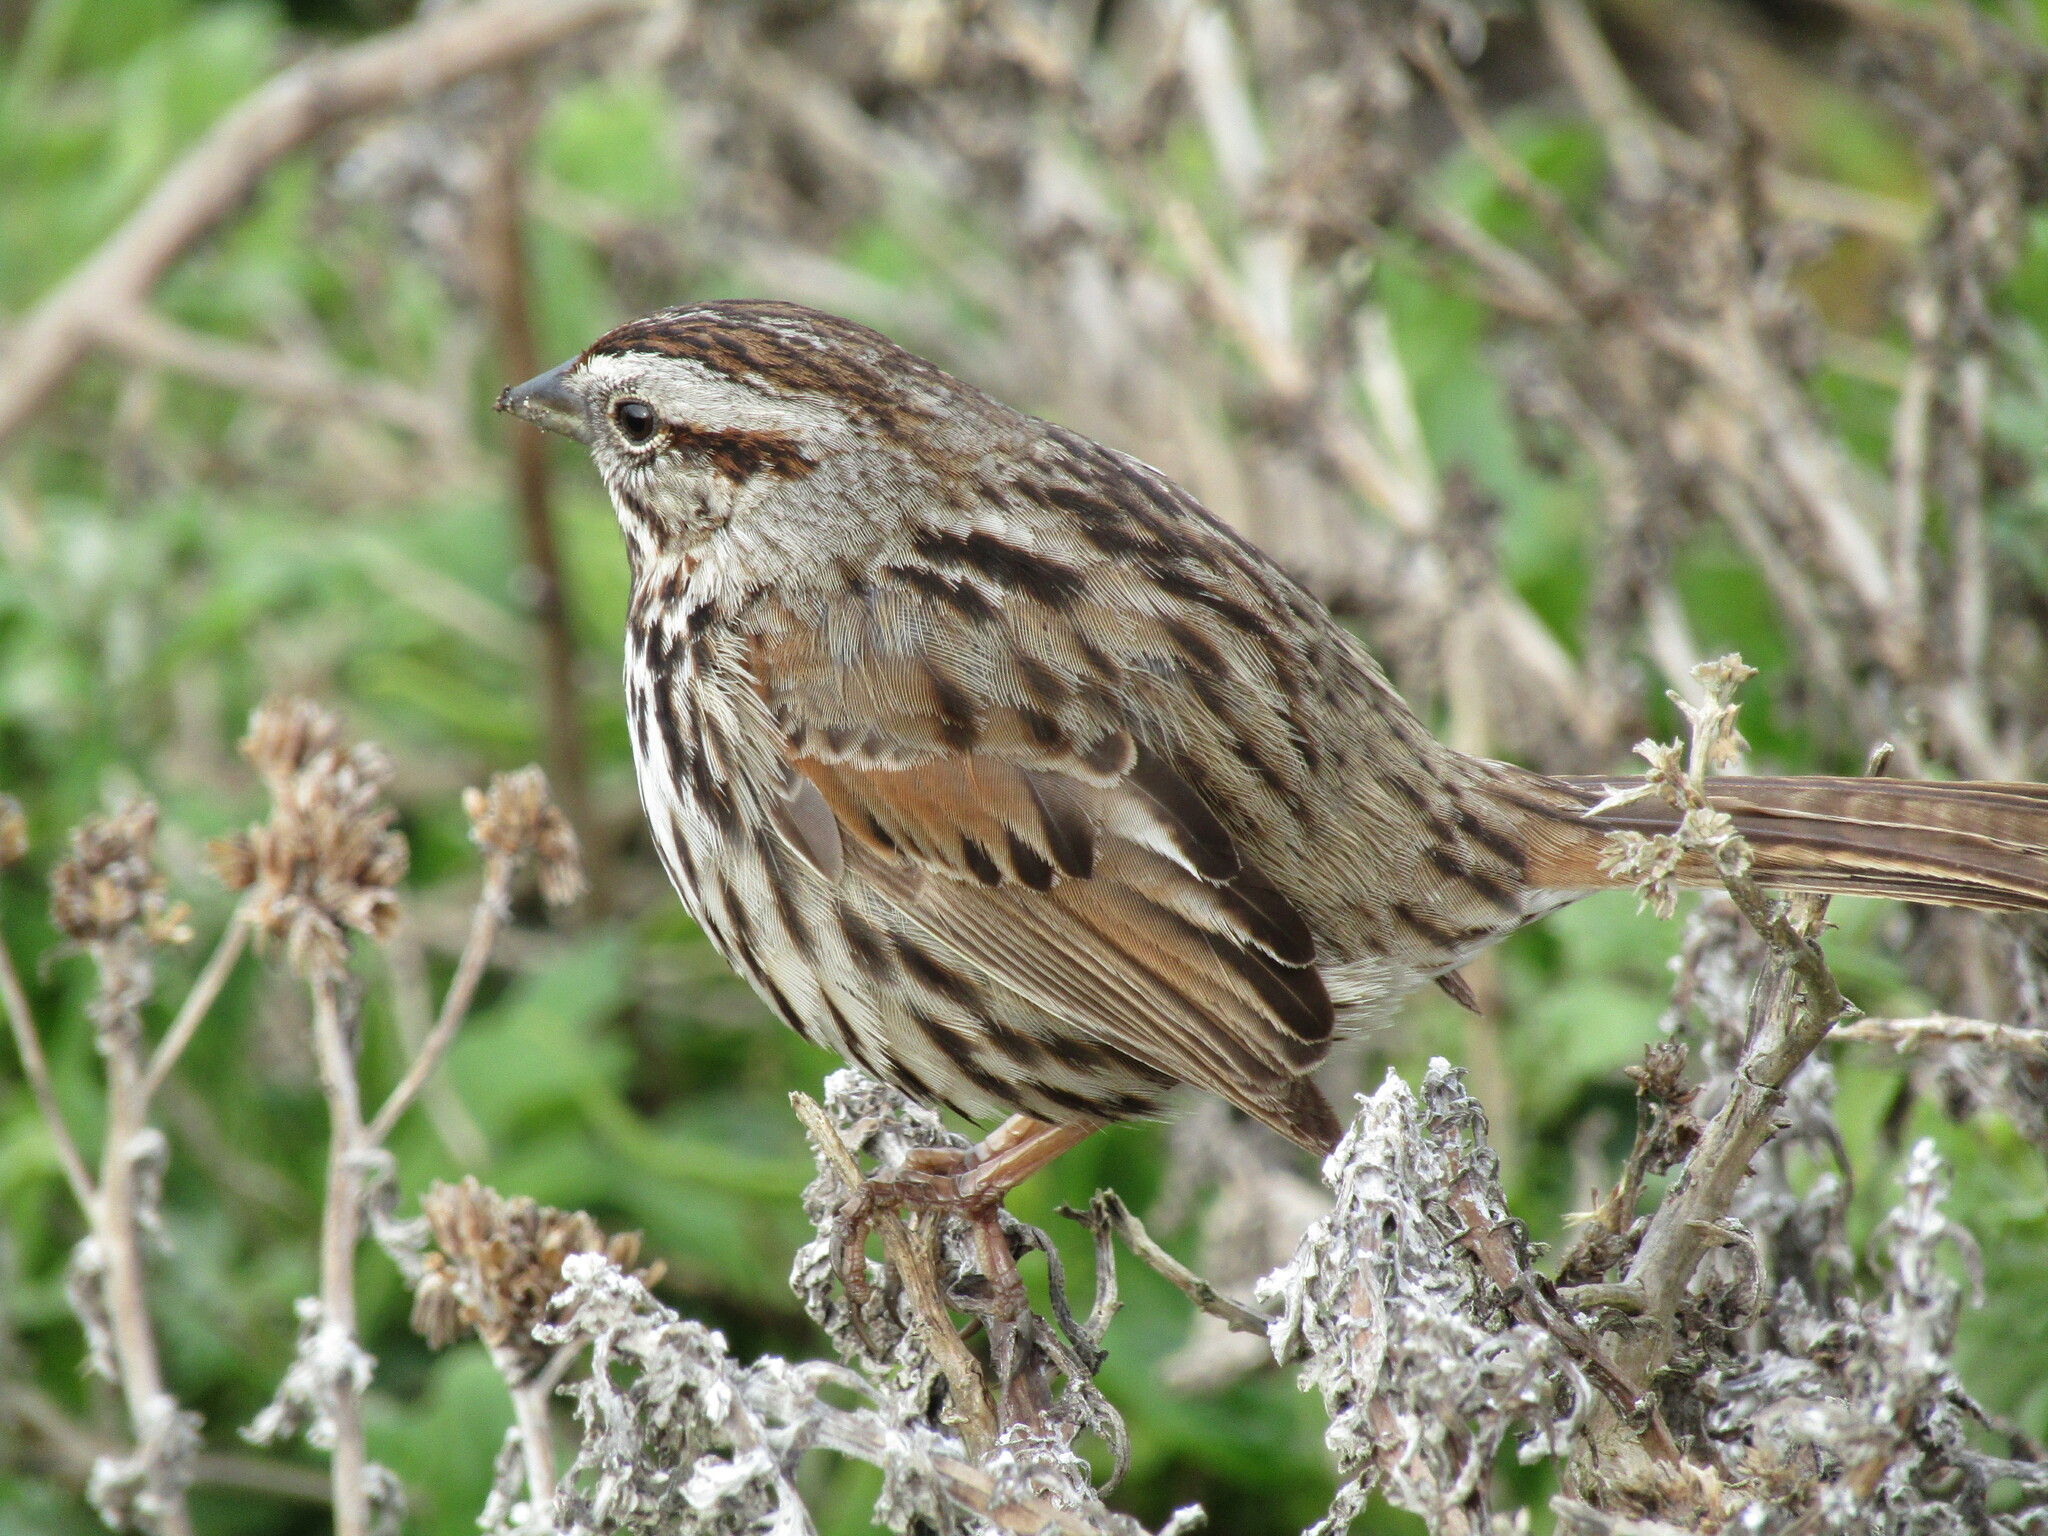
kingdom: Animalia
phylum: Chordata
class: Aves
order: Passeriformes
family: Passerellidae
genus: Melospiza
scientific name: Melospiza melodia
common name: Song sparrow
